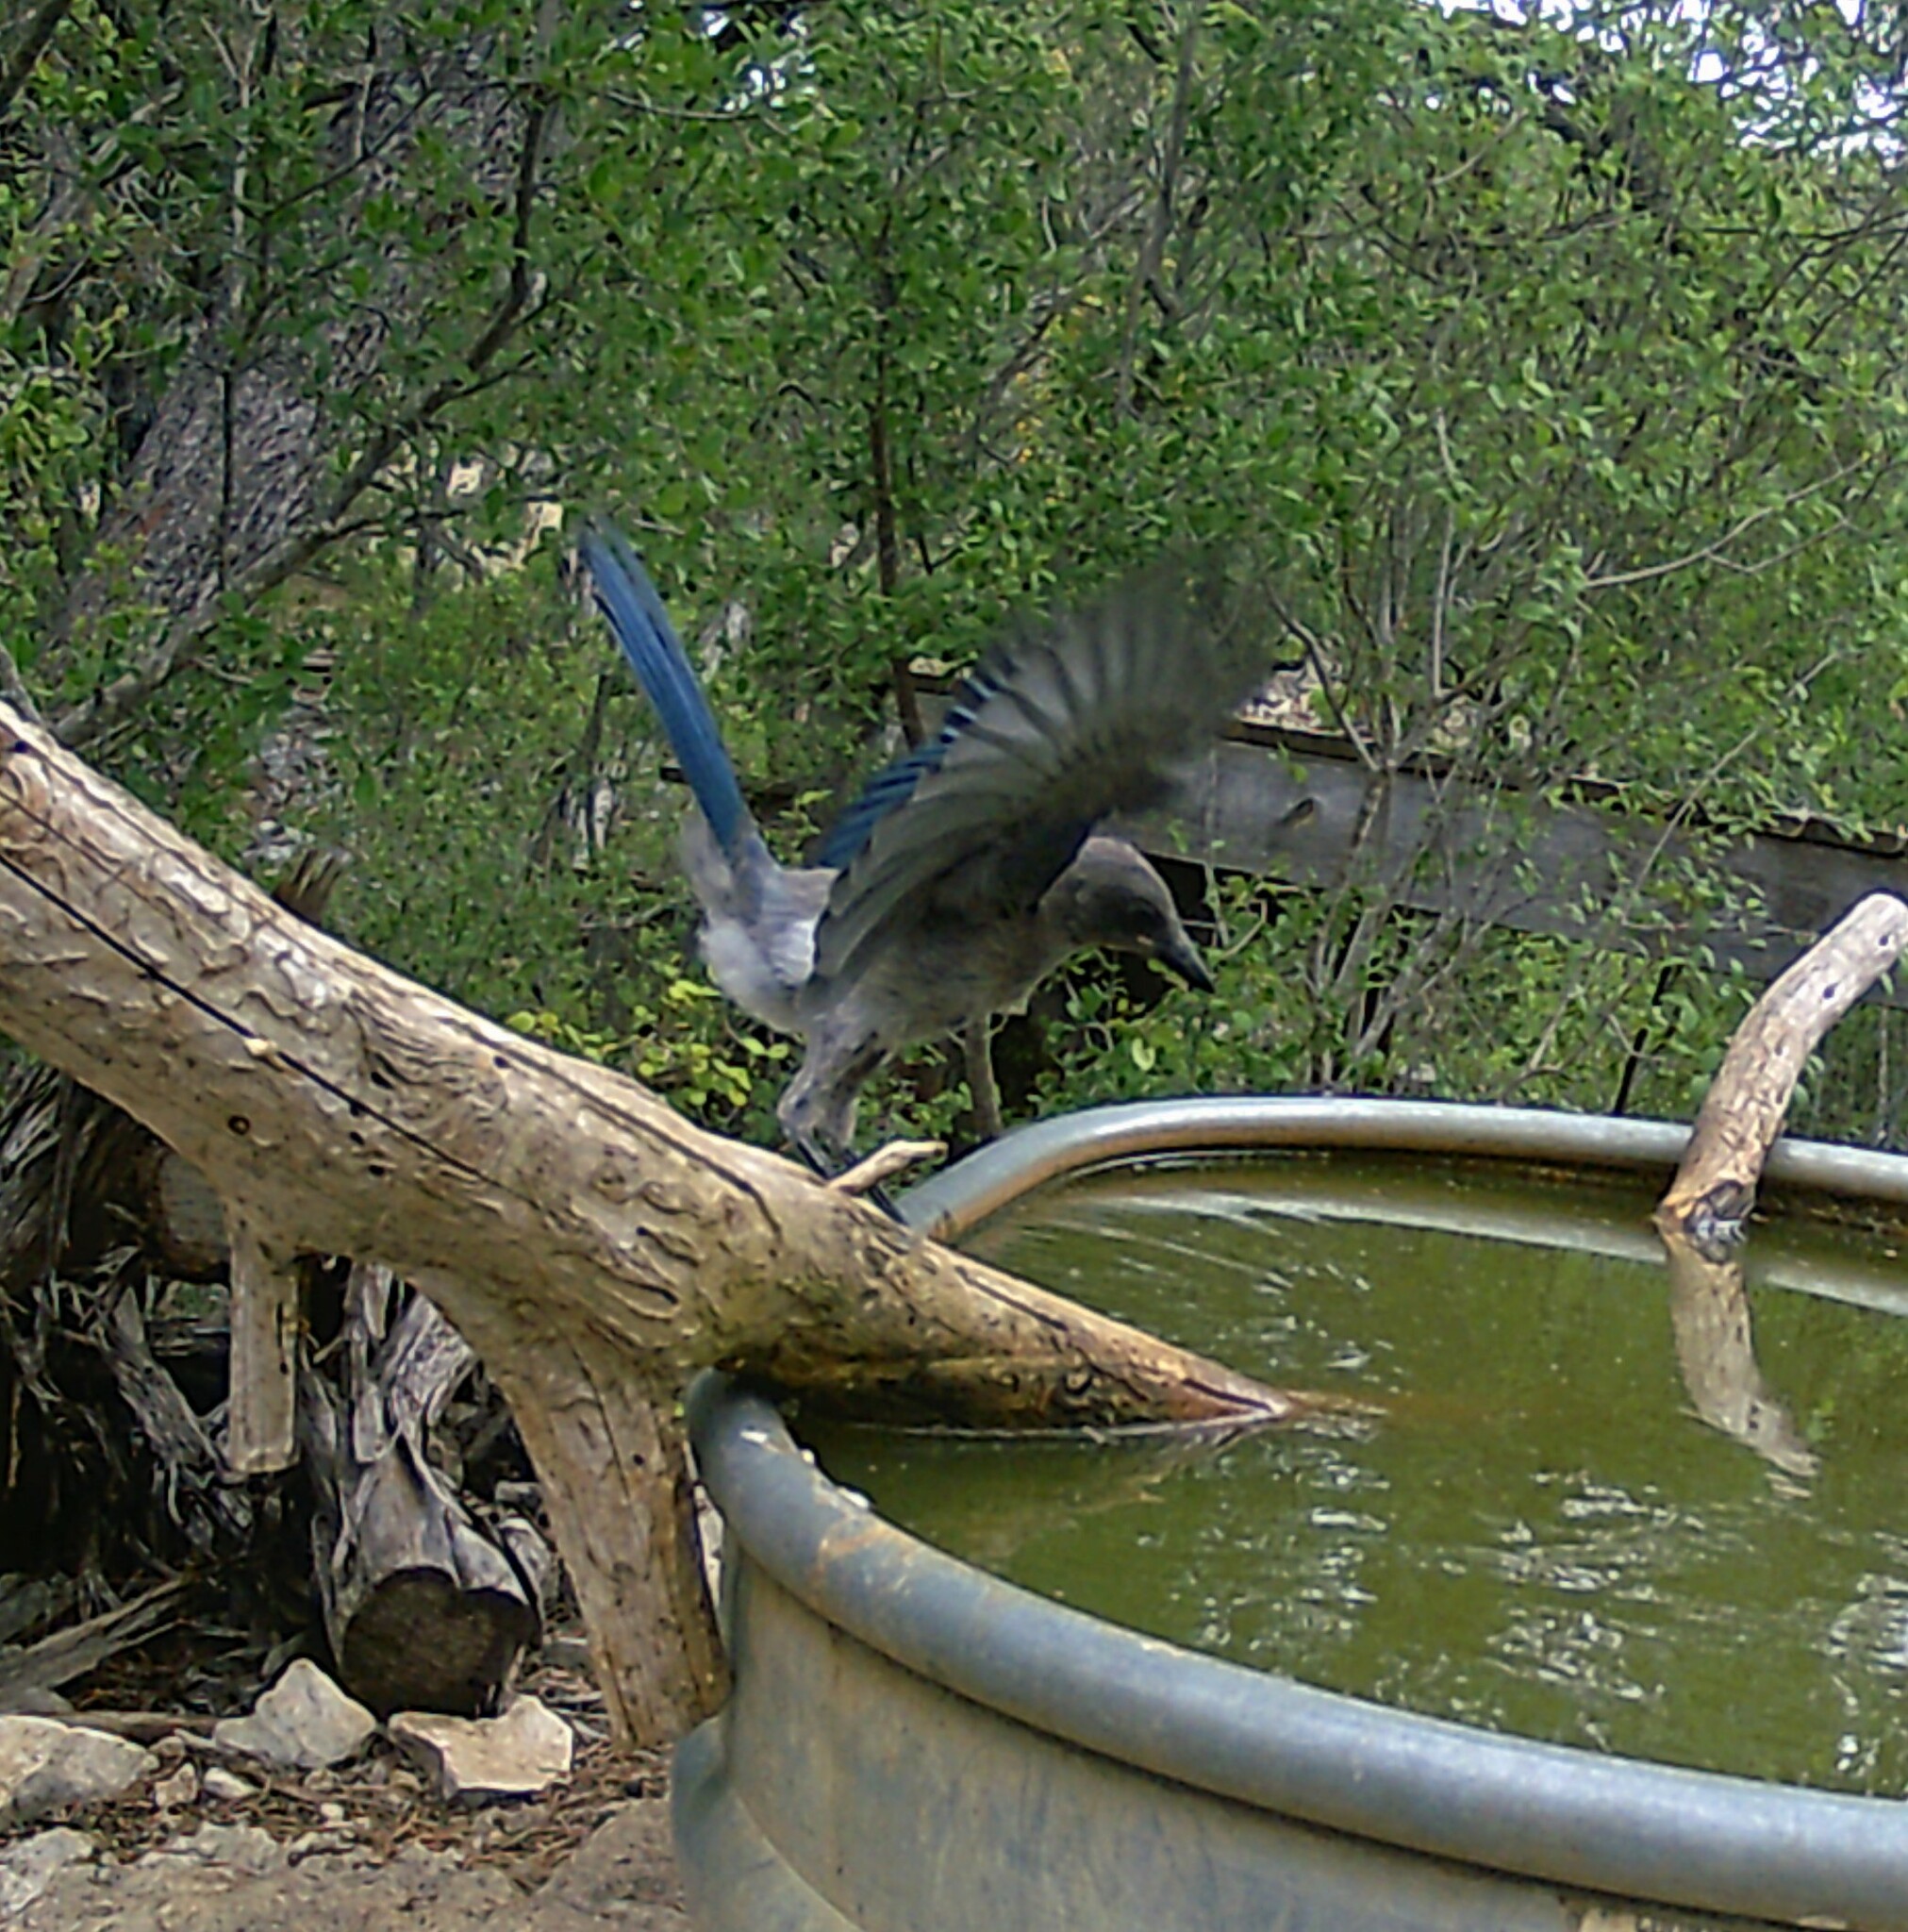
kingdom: Animalia
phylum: Chordata
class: Aves
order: Passeriformes
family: Corvidae
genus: Aphelocoma
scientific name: Aphelocoma woodhouseii
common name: Woodhouse's scrub-jay
